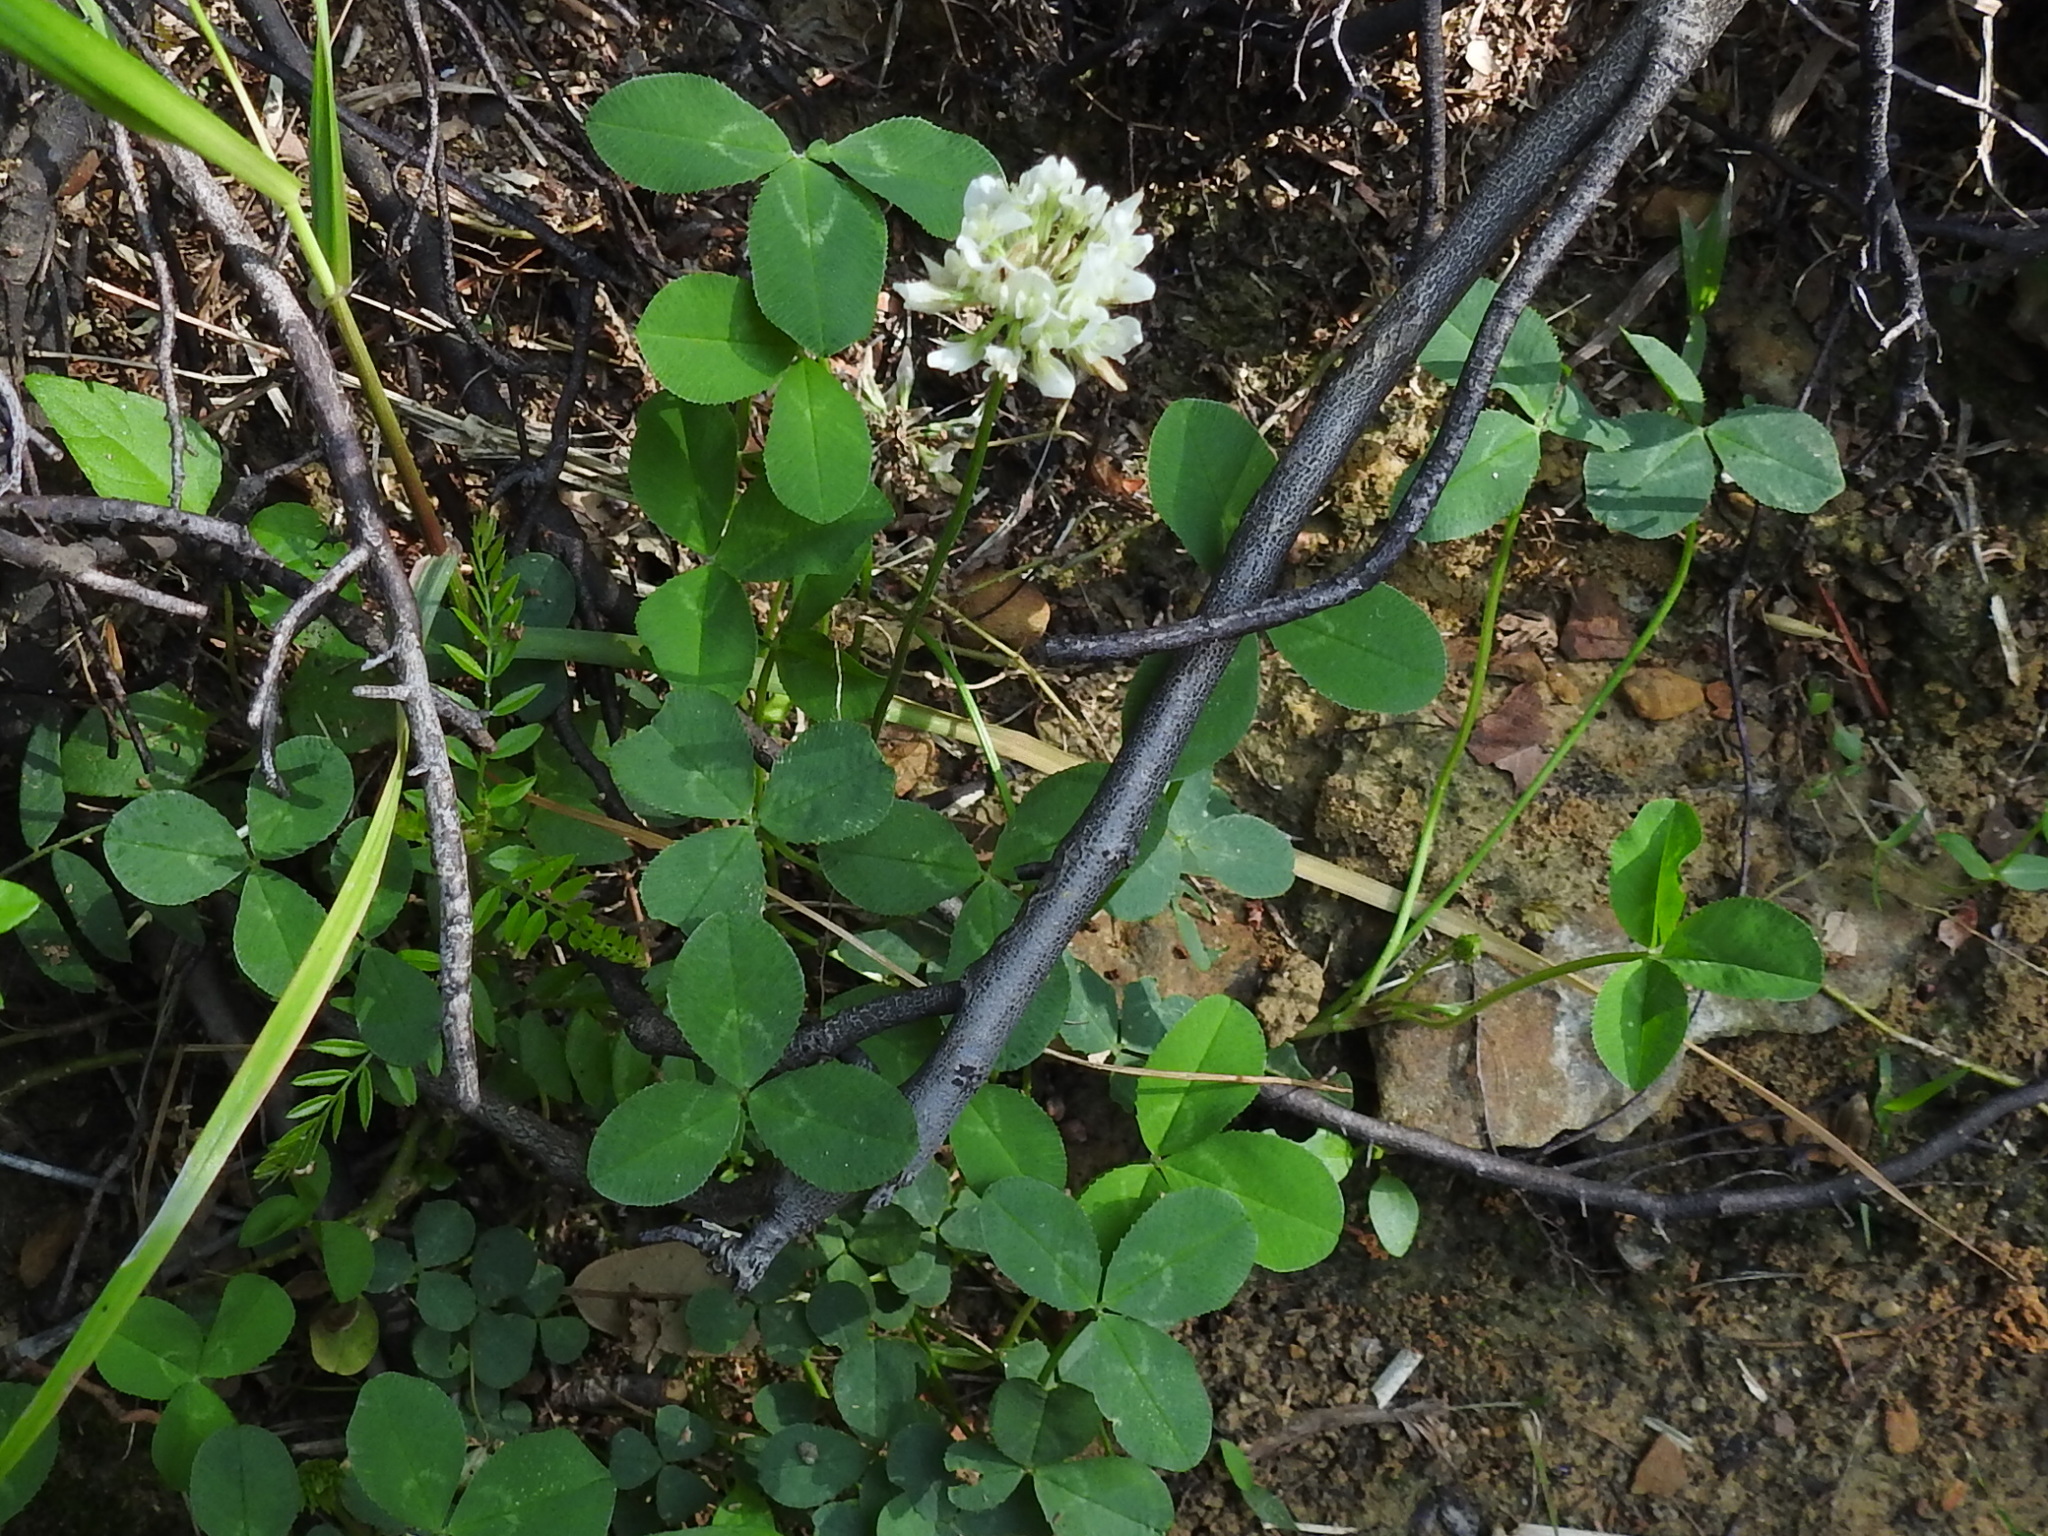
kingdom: Plantae
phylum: Tracheophyta
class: Magnoliopsida
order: Fabales
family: Fabaceae
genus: Trifolium
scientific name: Trifolium repens
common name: White clover
